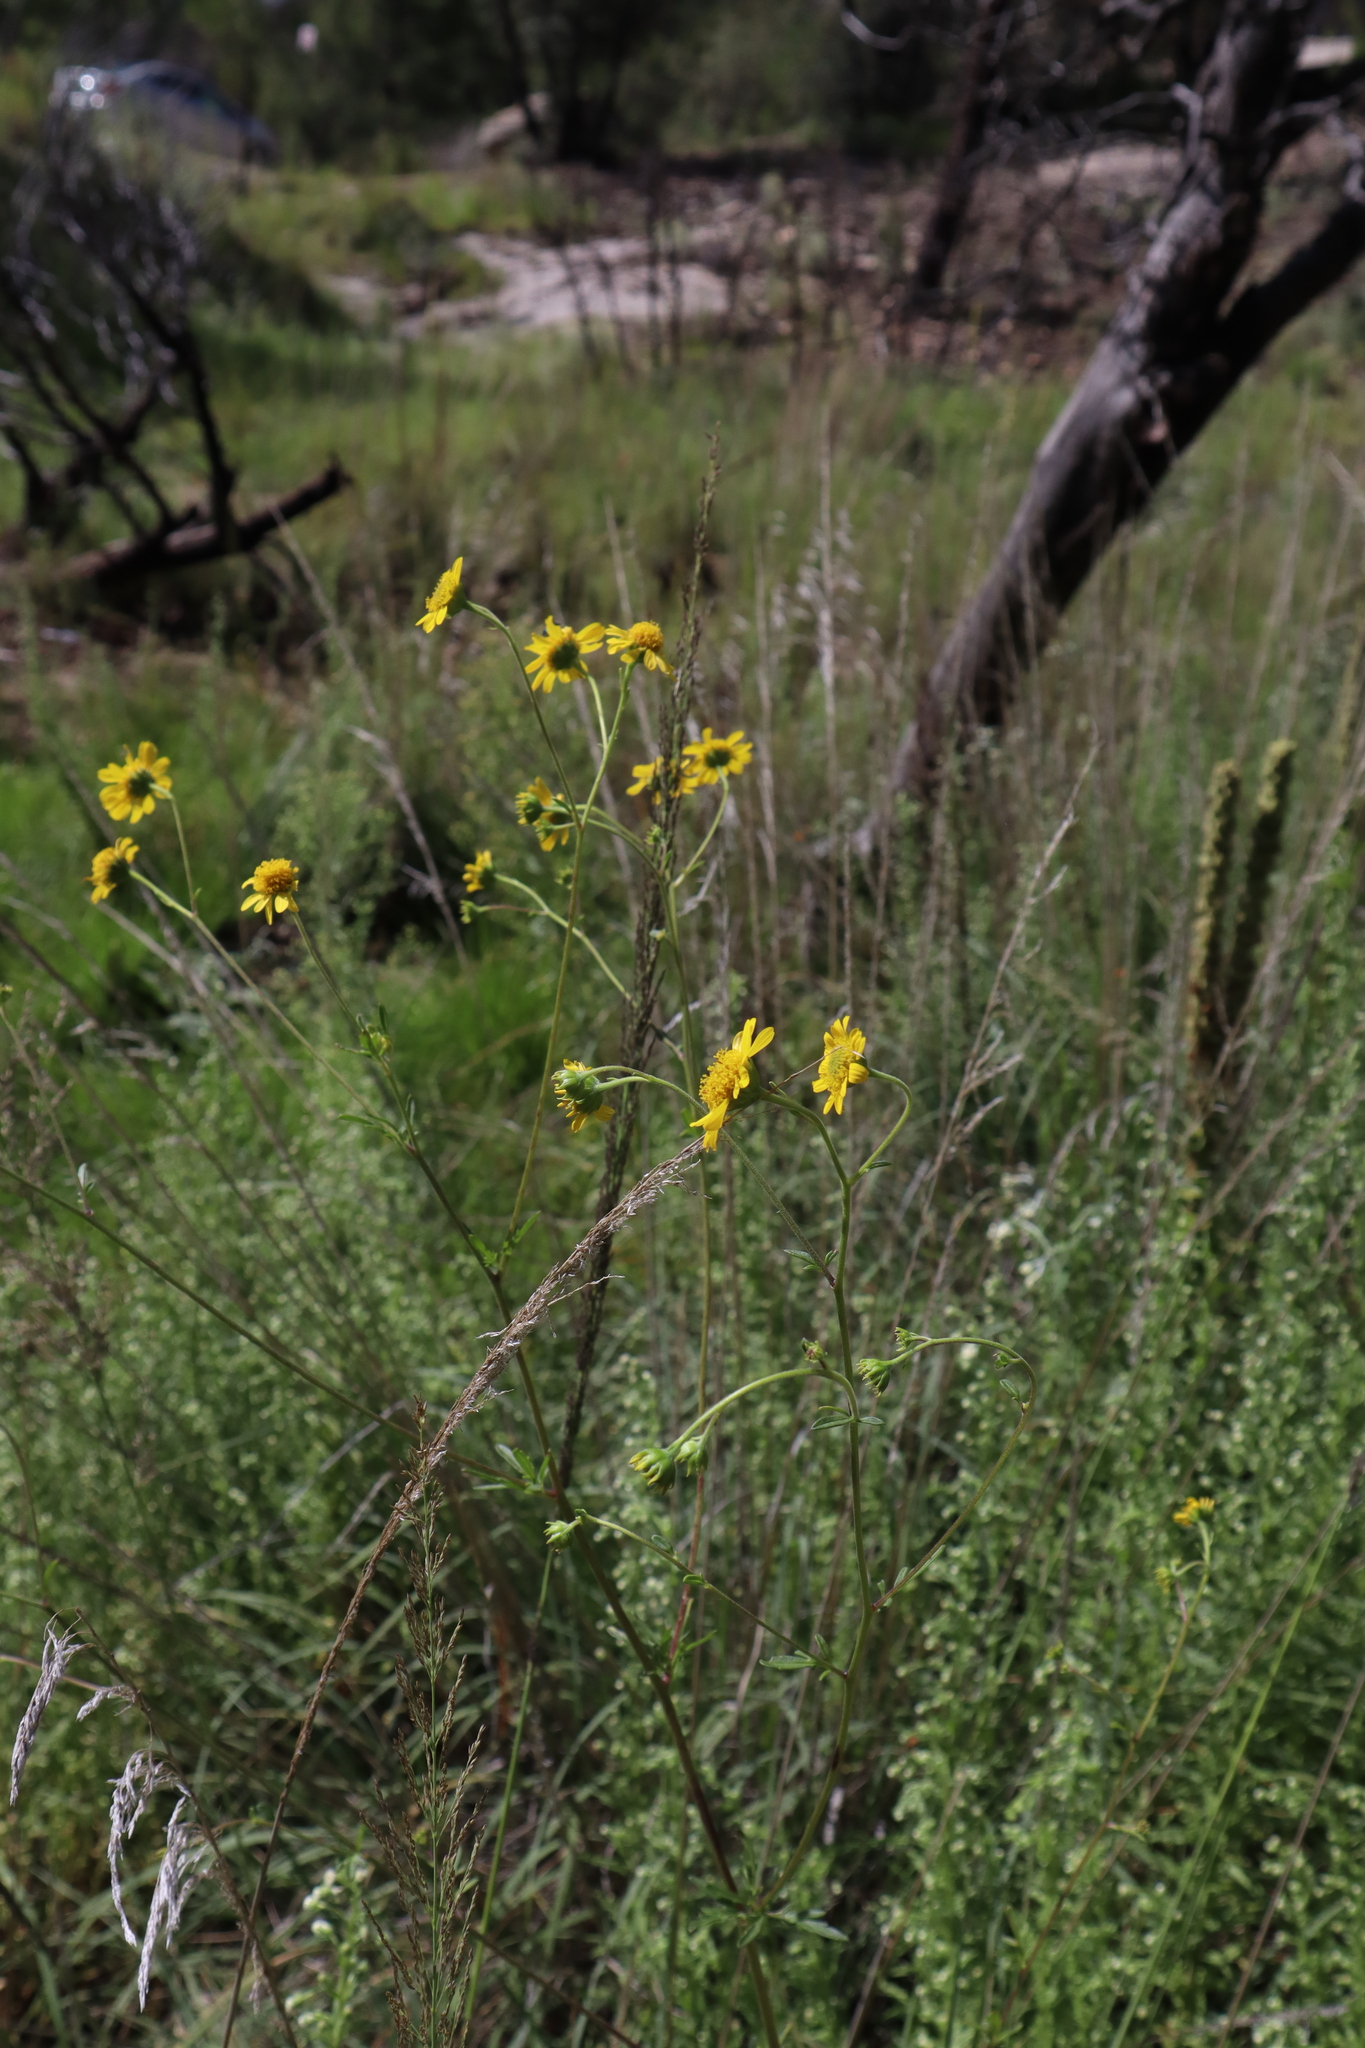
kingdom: Plantae
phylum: Tracheophyta
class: Magnoliopsida
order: Asterales
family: Asteraceae
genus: Hymenothrix
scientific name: Hymenothrix dissecta
